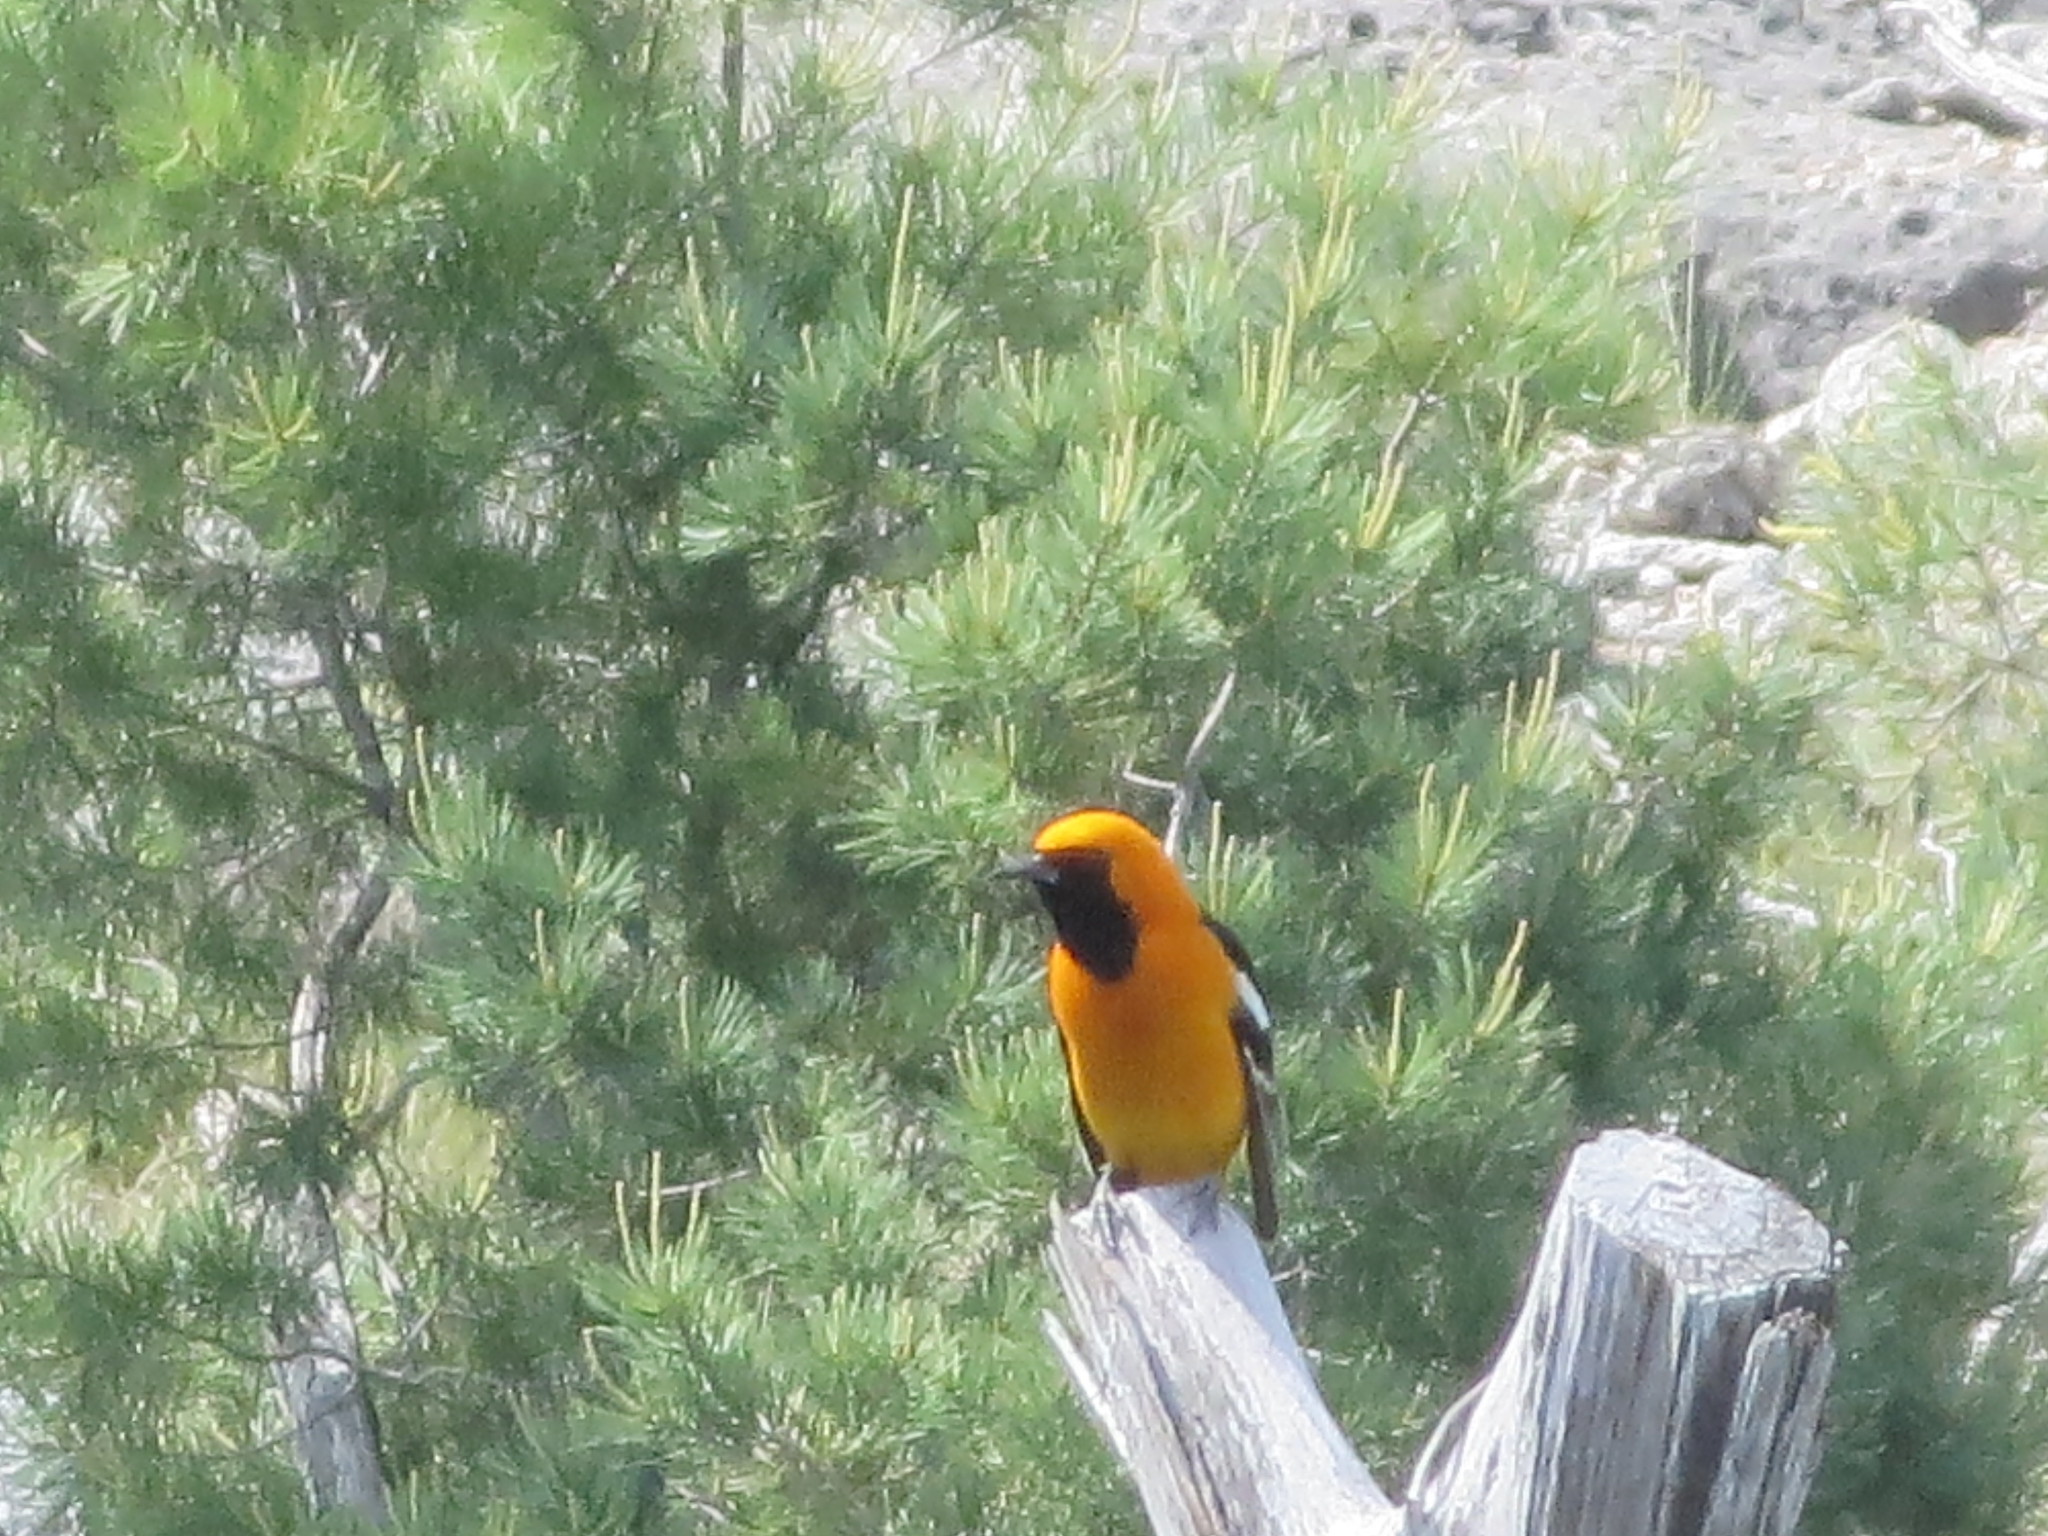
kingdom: Animalia
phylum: Chordata
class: Aves
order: Passeriformes
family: Icteridae
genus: Icterus
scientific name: Icterus cucullatus
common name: Hooded oriole
